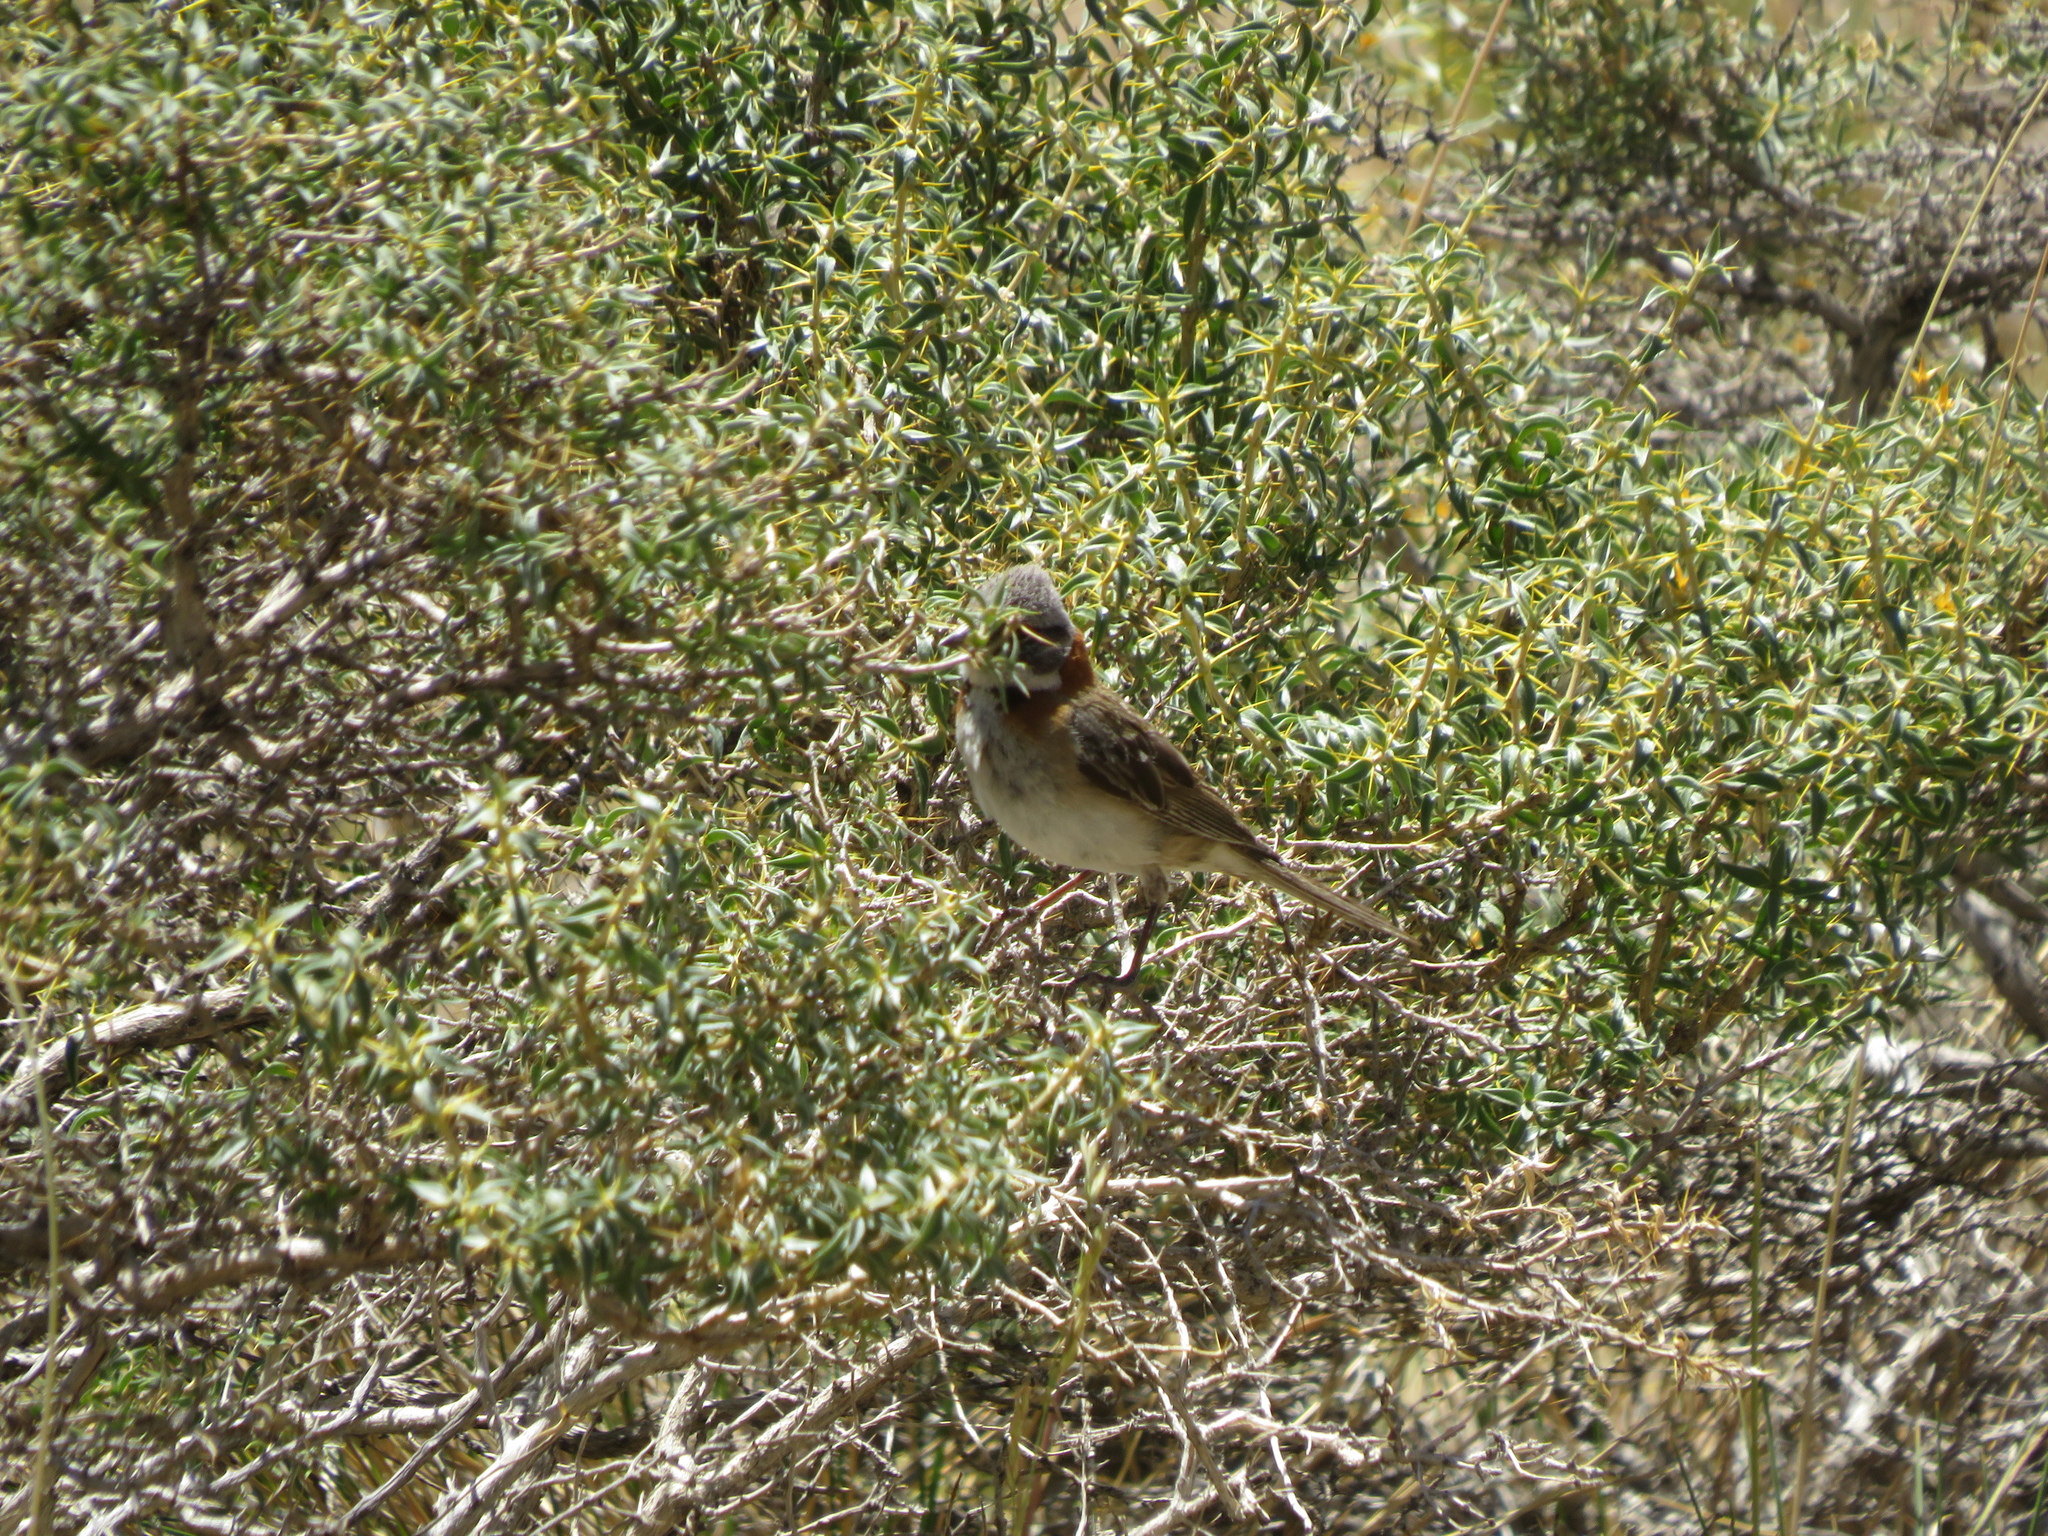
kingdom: Animalia
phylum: Chordata
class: Aves
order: Passeriformes
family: Passerellidae
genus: Zonotrichia
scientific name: Zonotrichia capensis
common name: Rufous-collared sparrow
